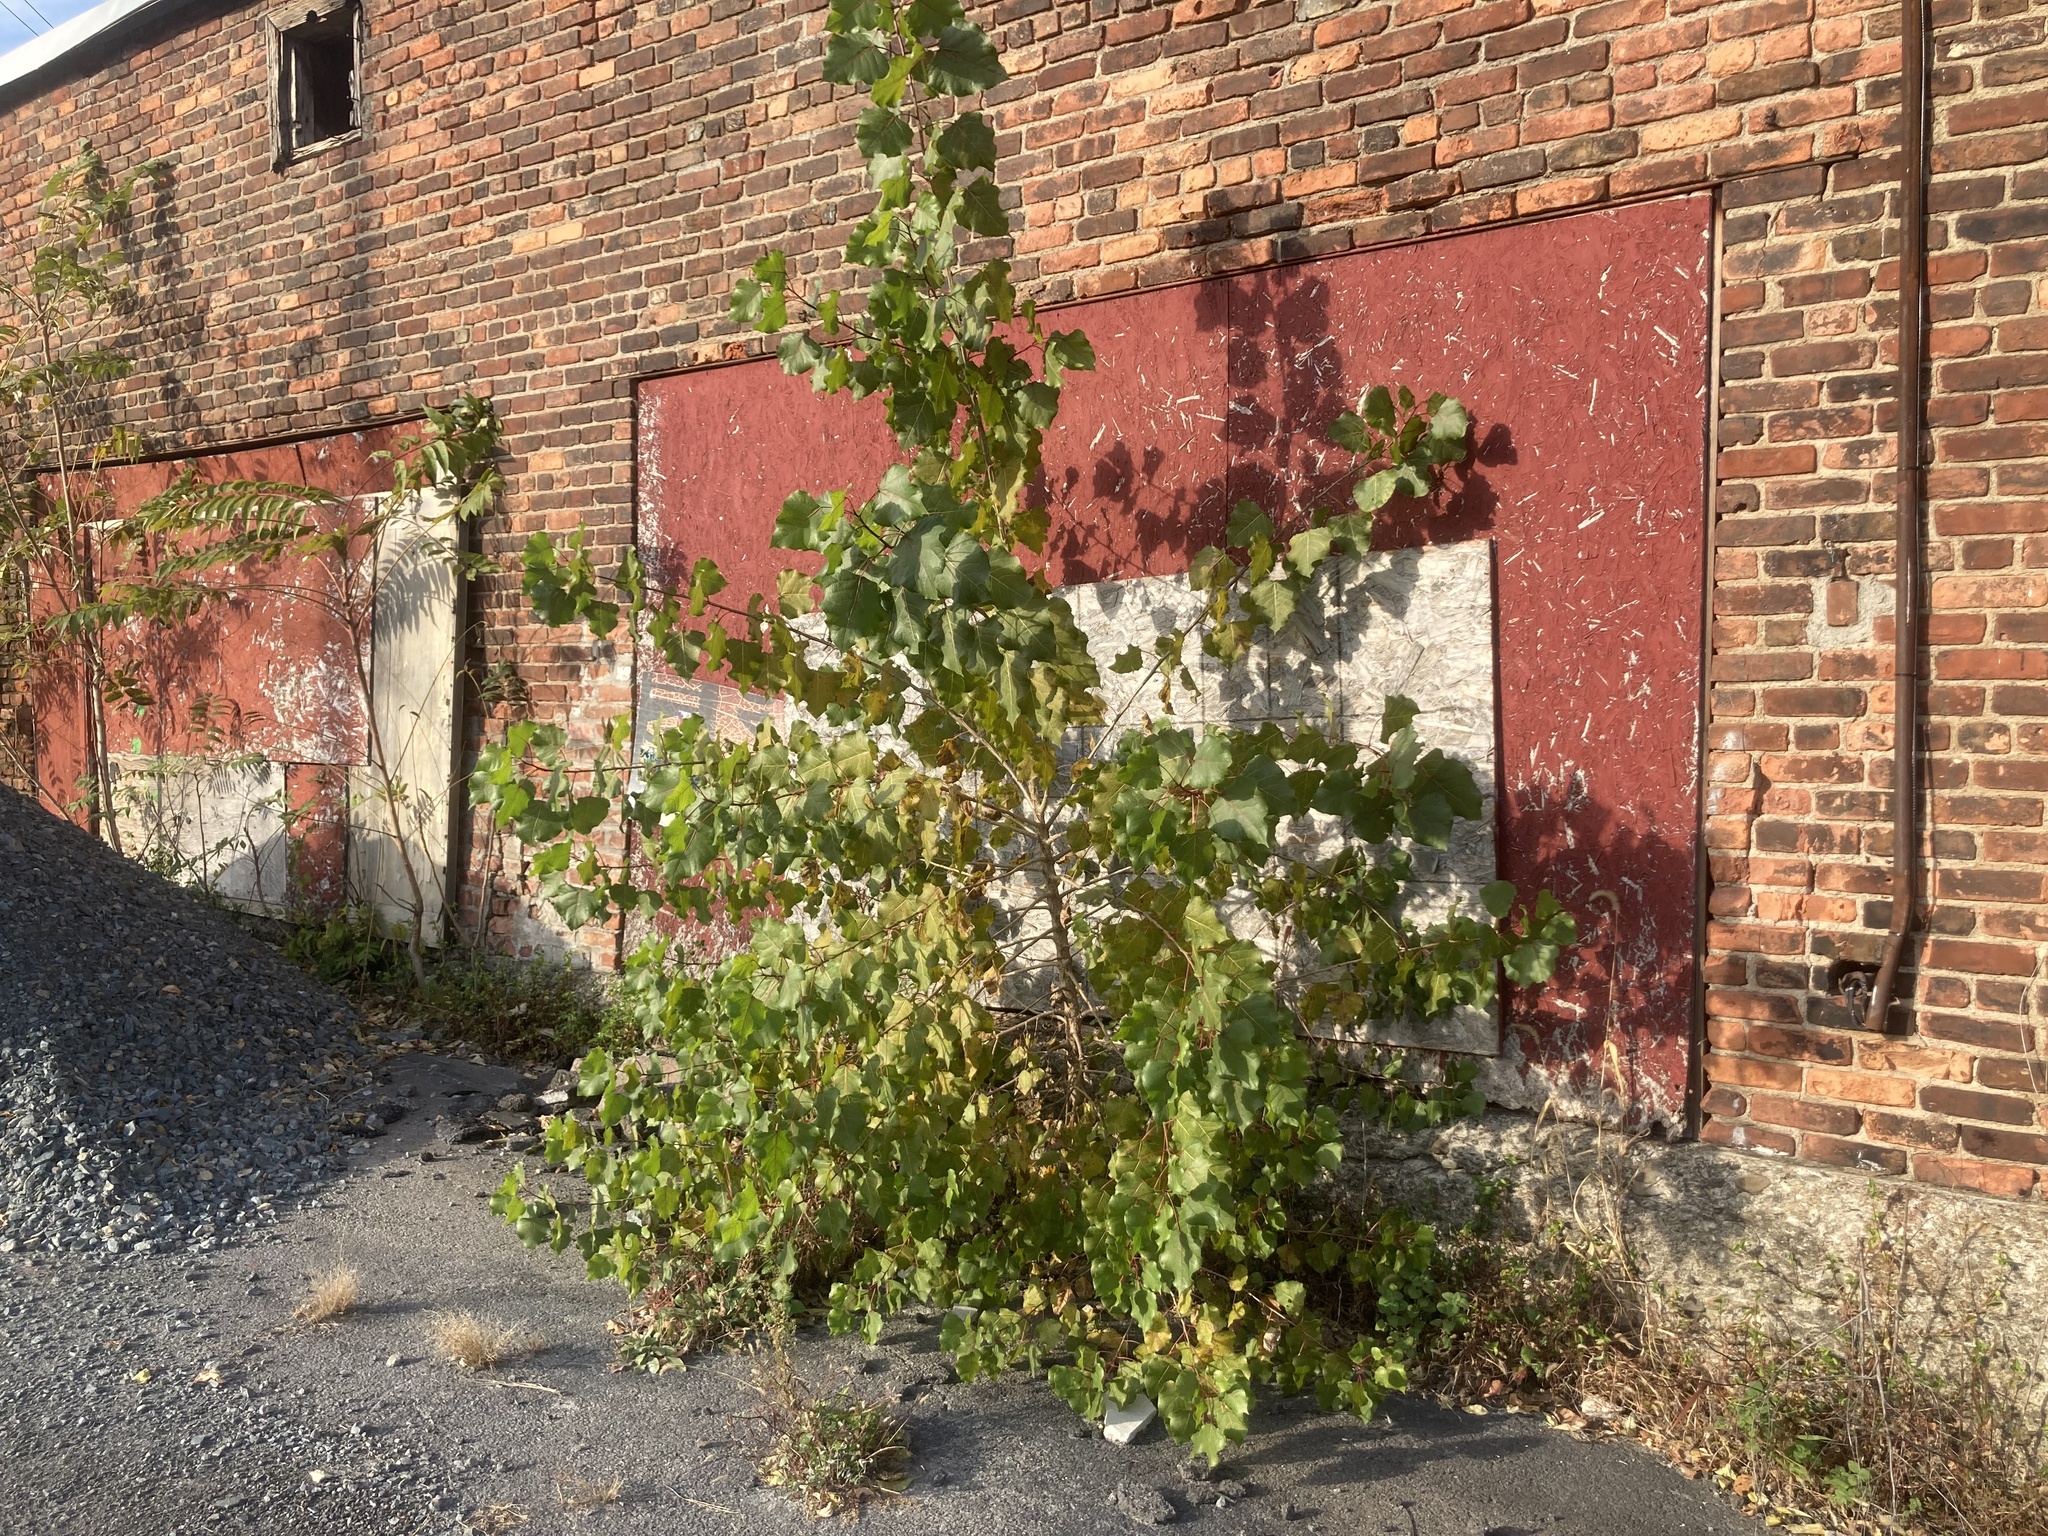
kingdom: Plantae
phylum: Tracheophyta
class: Magnoliopsida
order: Malpighiales
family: Salicaceae
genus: Populus
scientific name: Populus deltoides
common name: Eastern cottonwood
